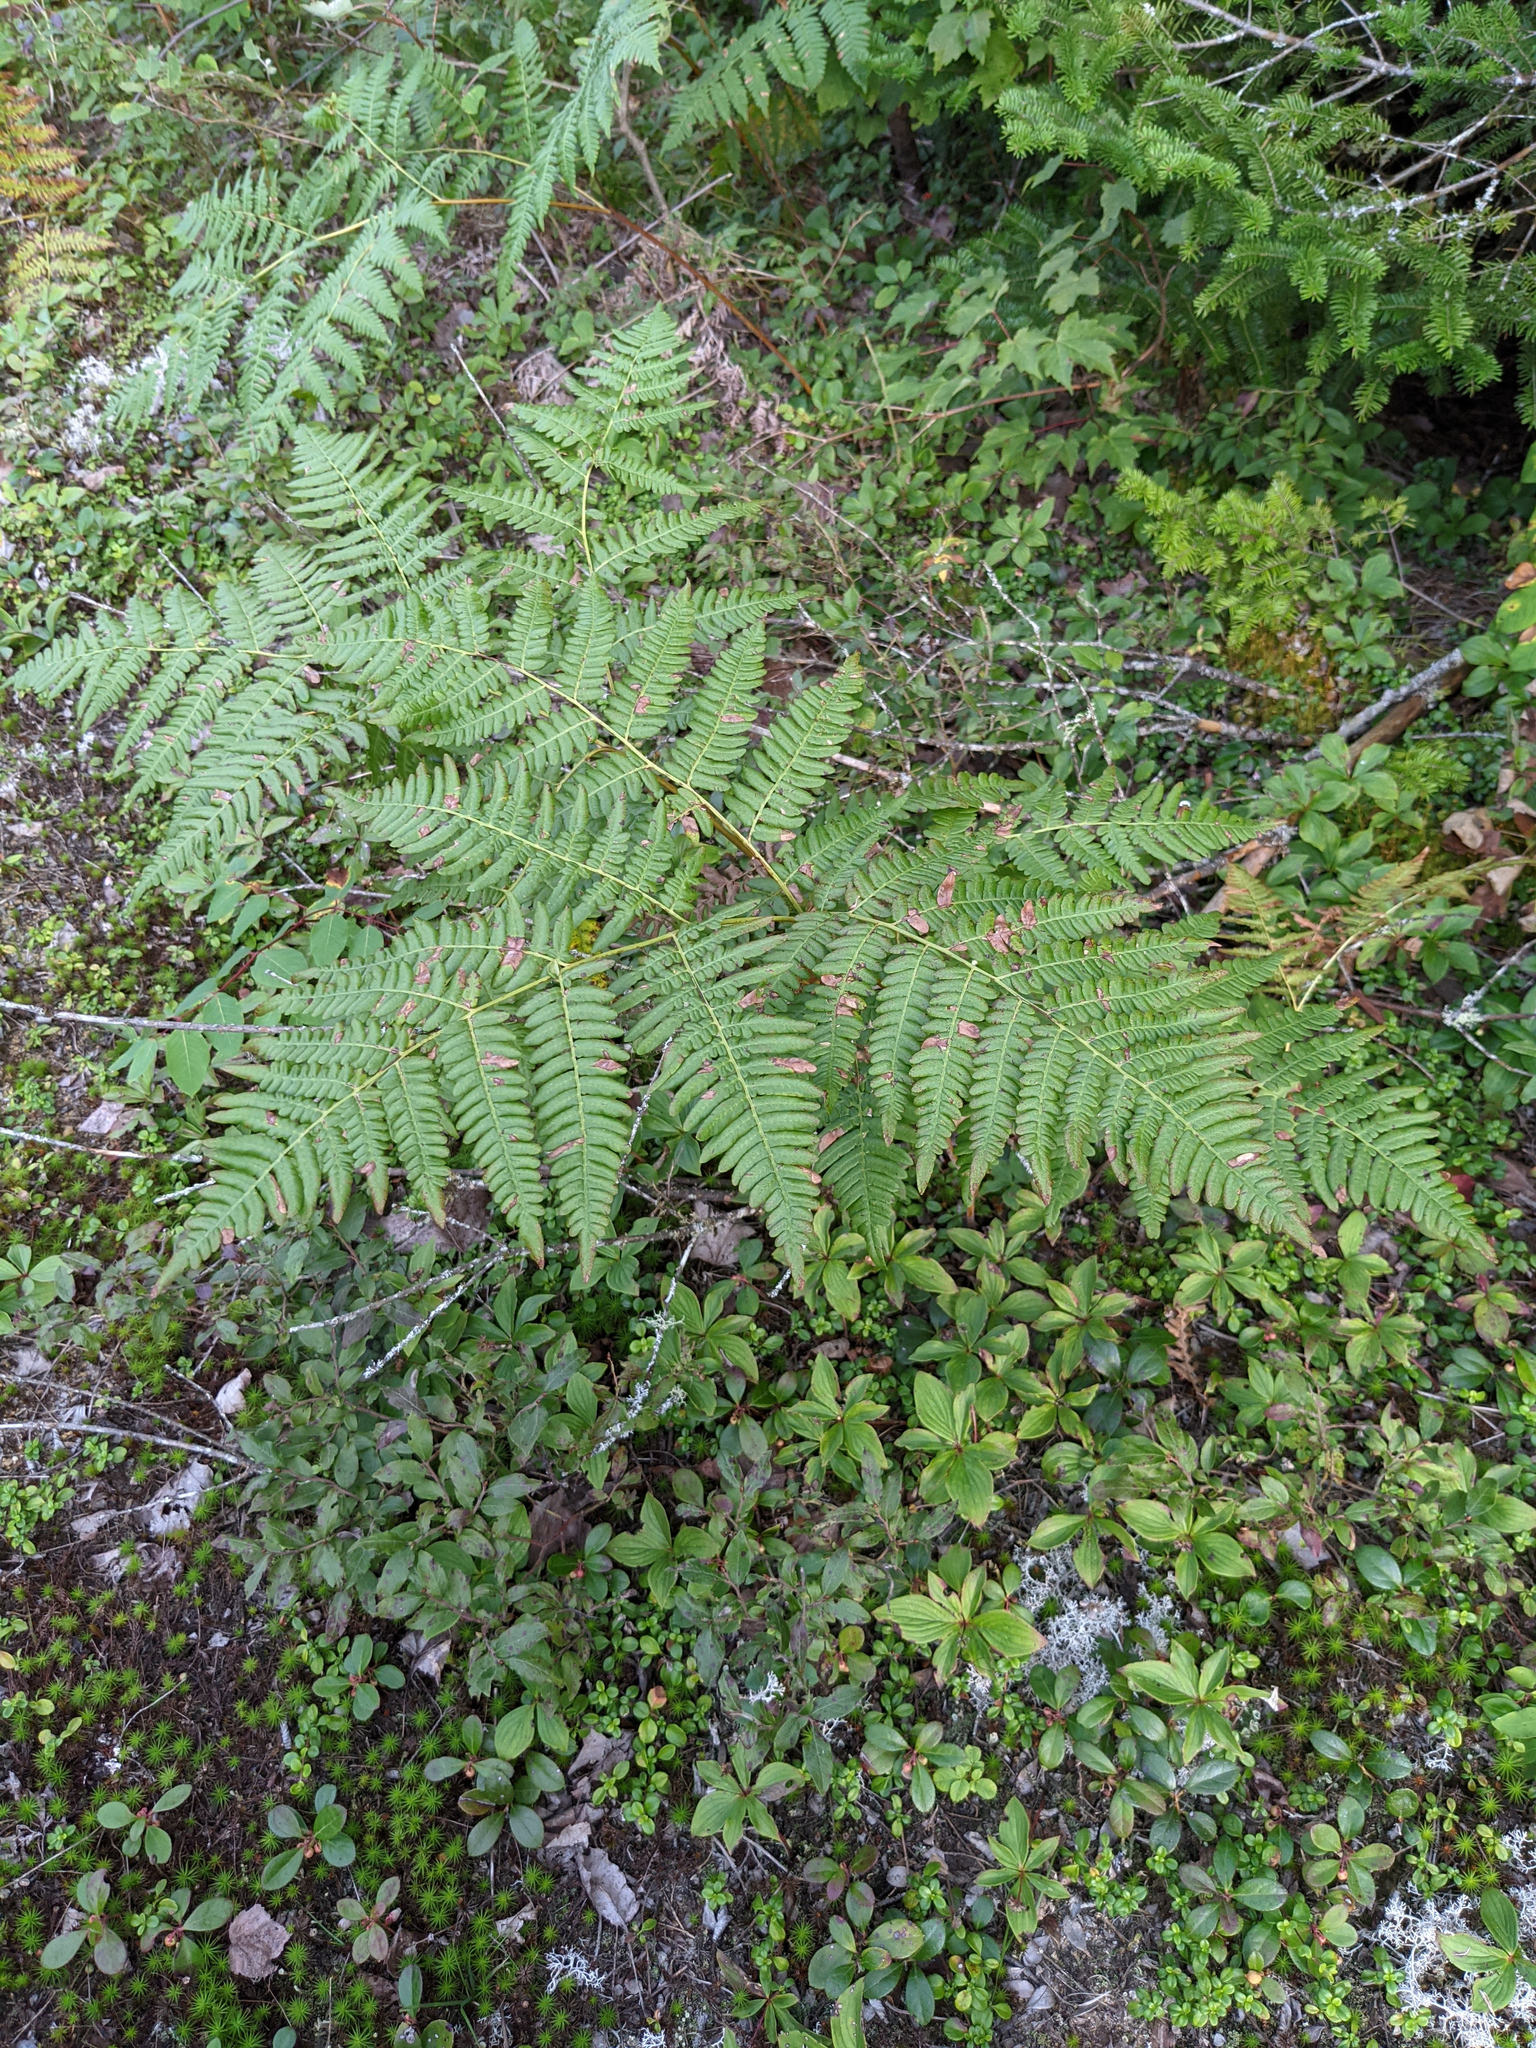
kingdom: Plantae
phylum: Tracheophyta
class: Polypodiopsida
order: Polypodiales
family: Dennstaedtiaceae
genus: Pteridium
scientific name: Pteridium aquilinum
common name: Bracken
